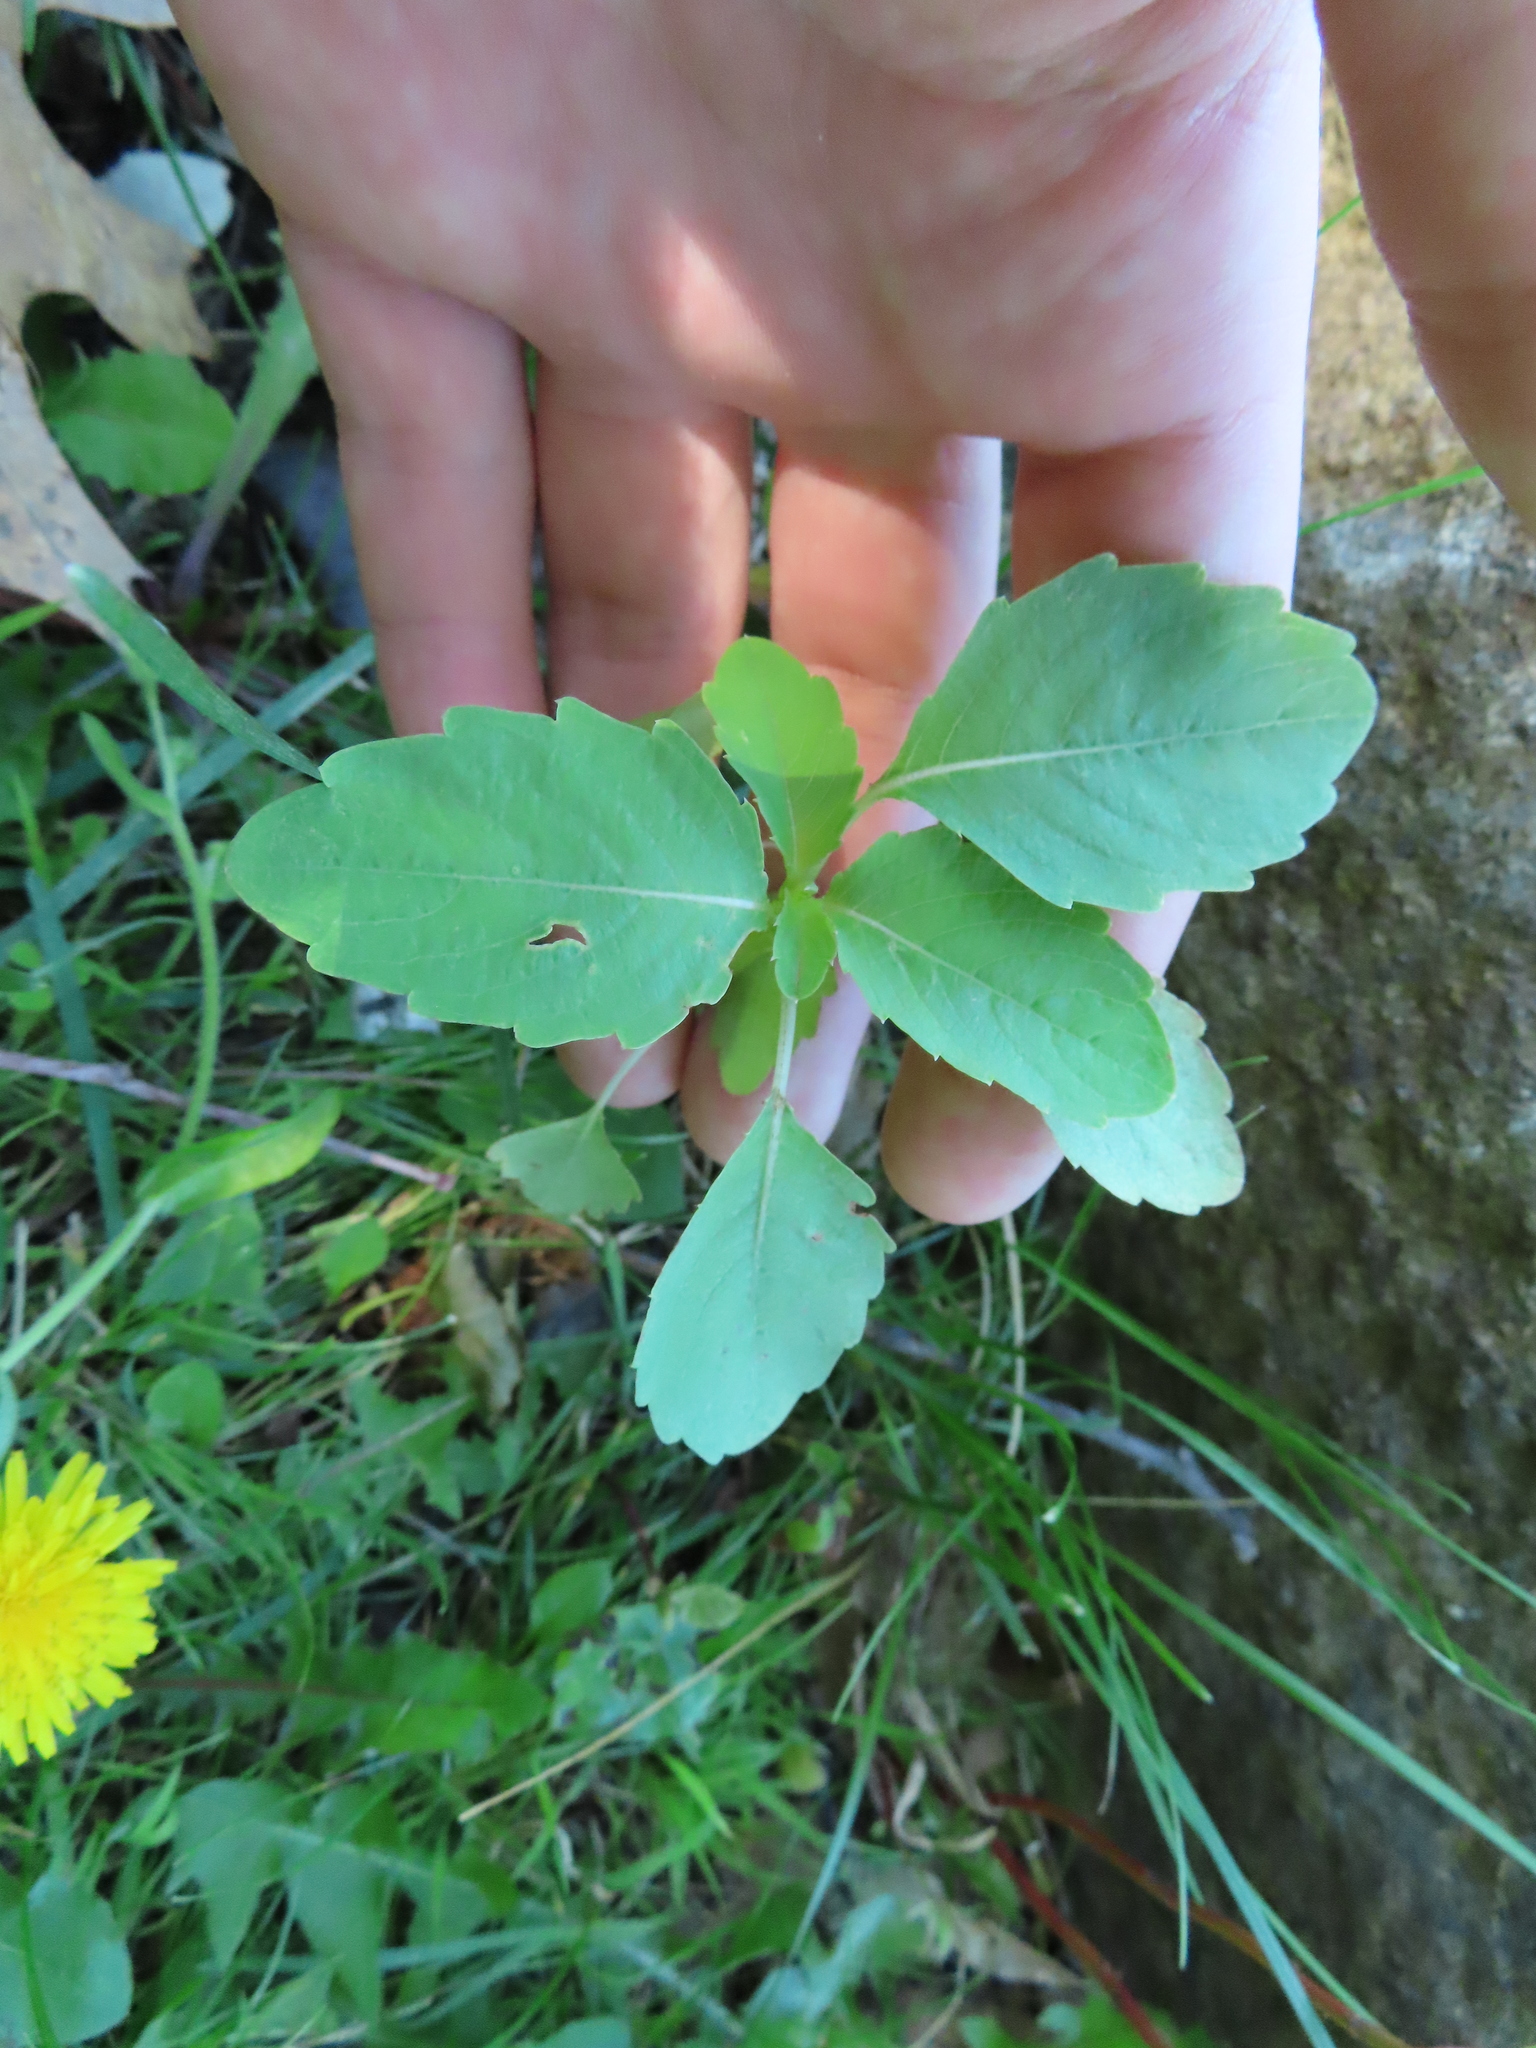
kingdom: Plantae
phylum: Tracheophyta
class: Magnoliopsida
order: Ericales
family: Balsaminaceae
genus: Impatiens
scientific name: Impatiens capensis
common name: Orange balsam
